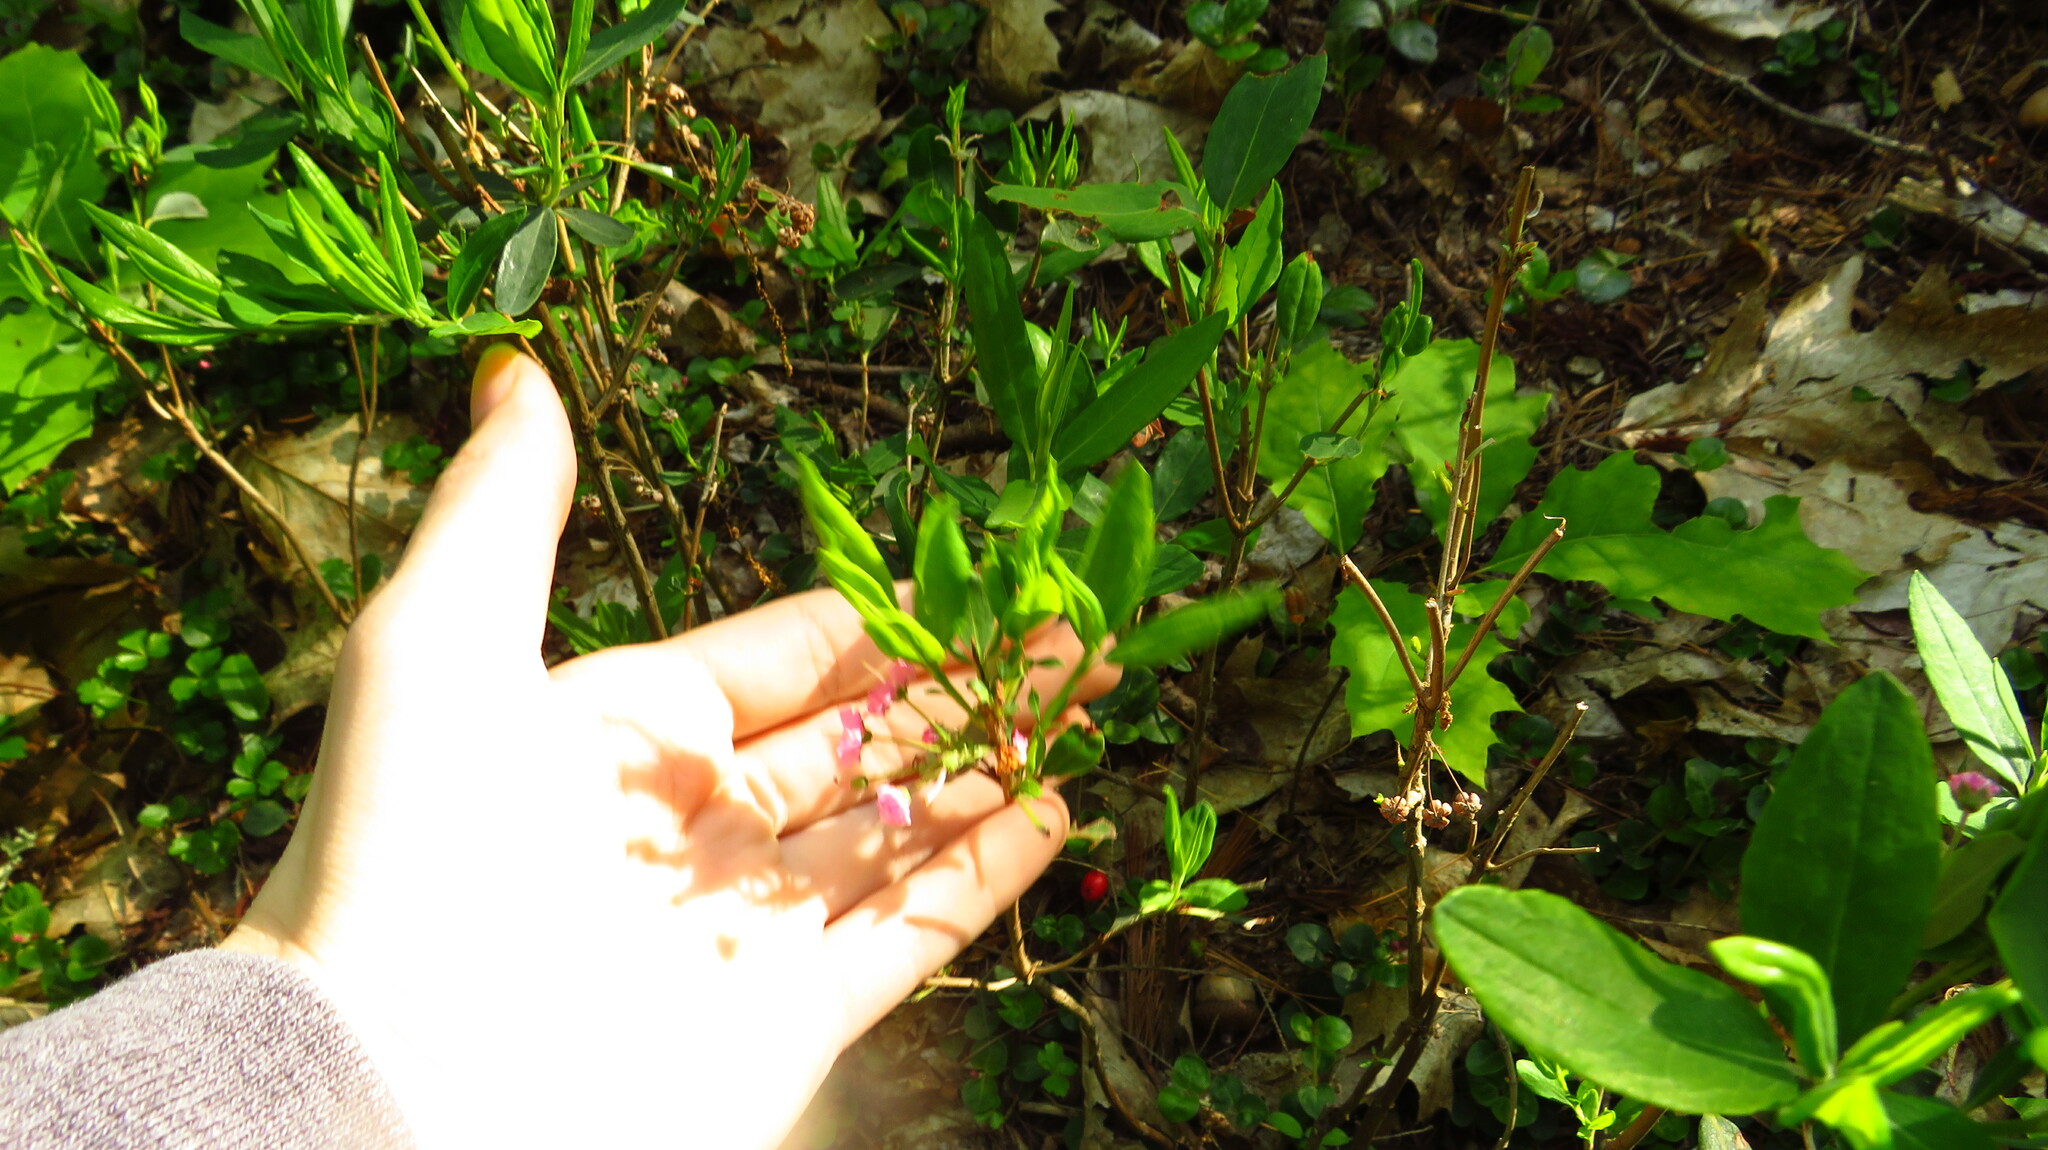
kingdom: Plantae
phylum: Tracheophyta
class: Magnoliopsida
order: Ericales
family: Ericaceae
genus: Kalmia
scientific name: Kalmia angustifolia
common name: Sheep-laurel
